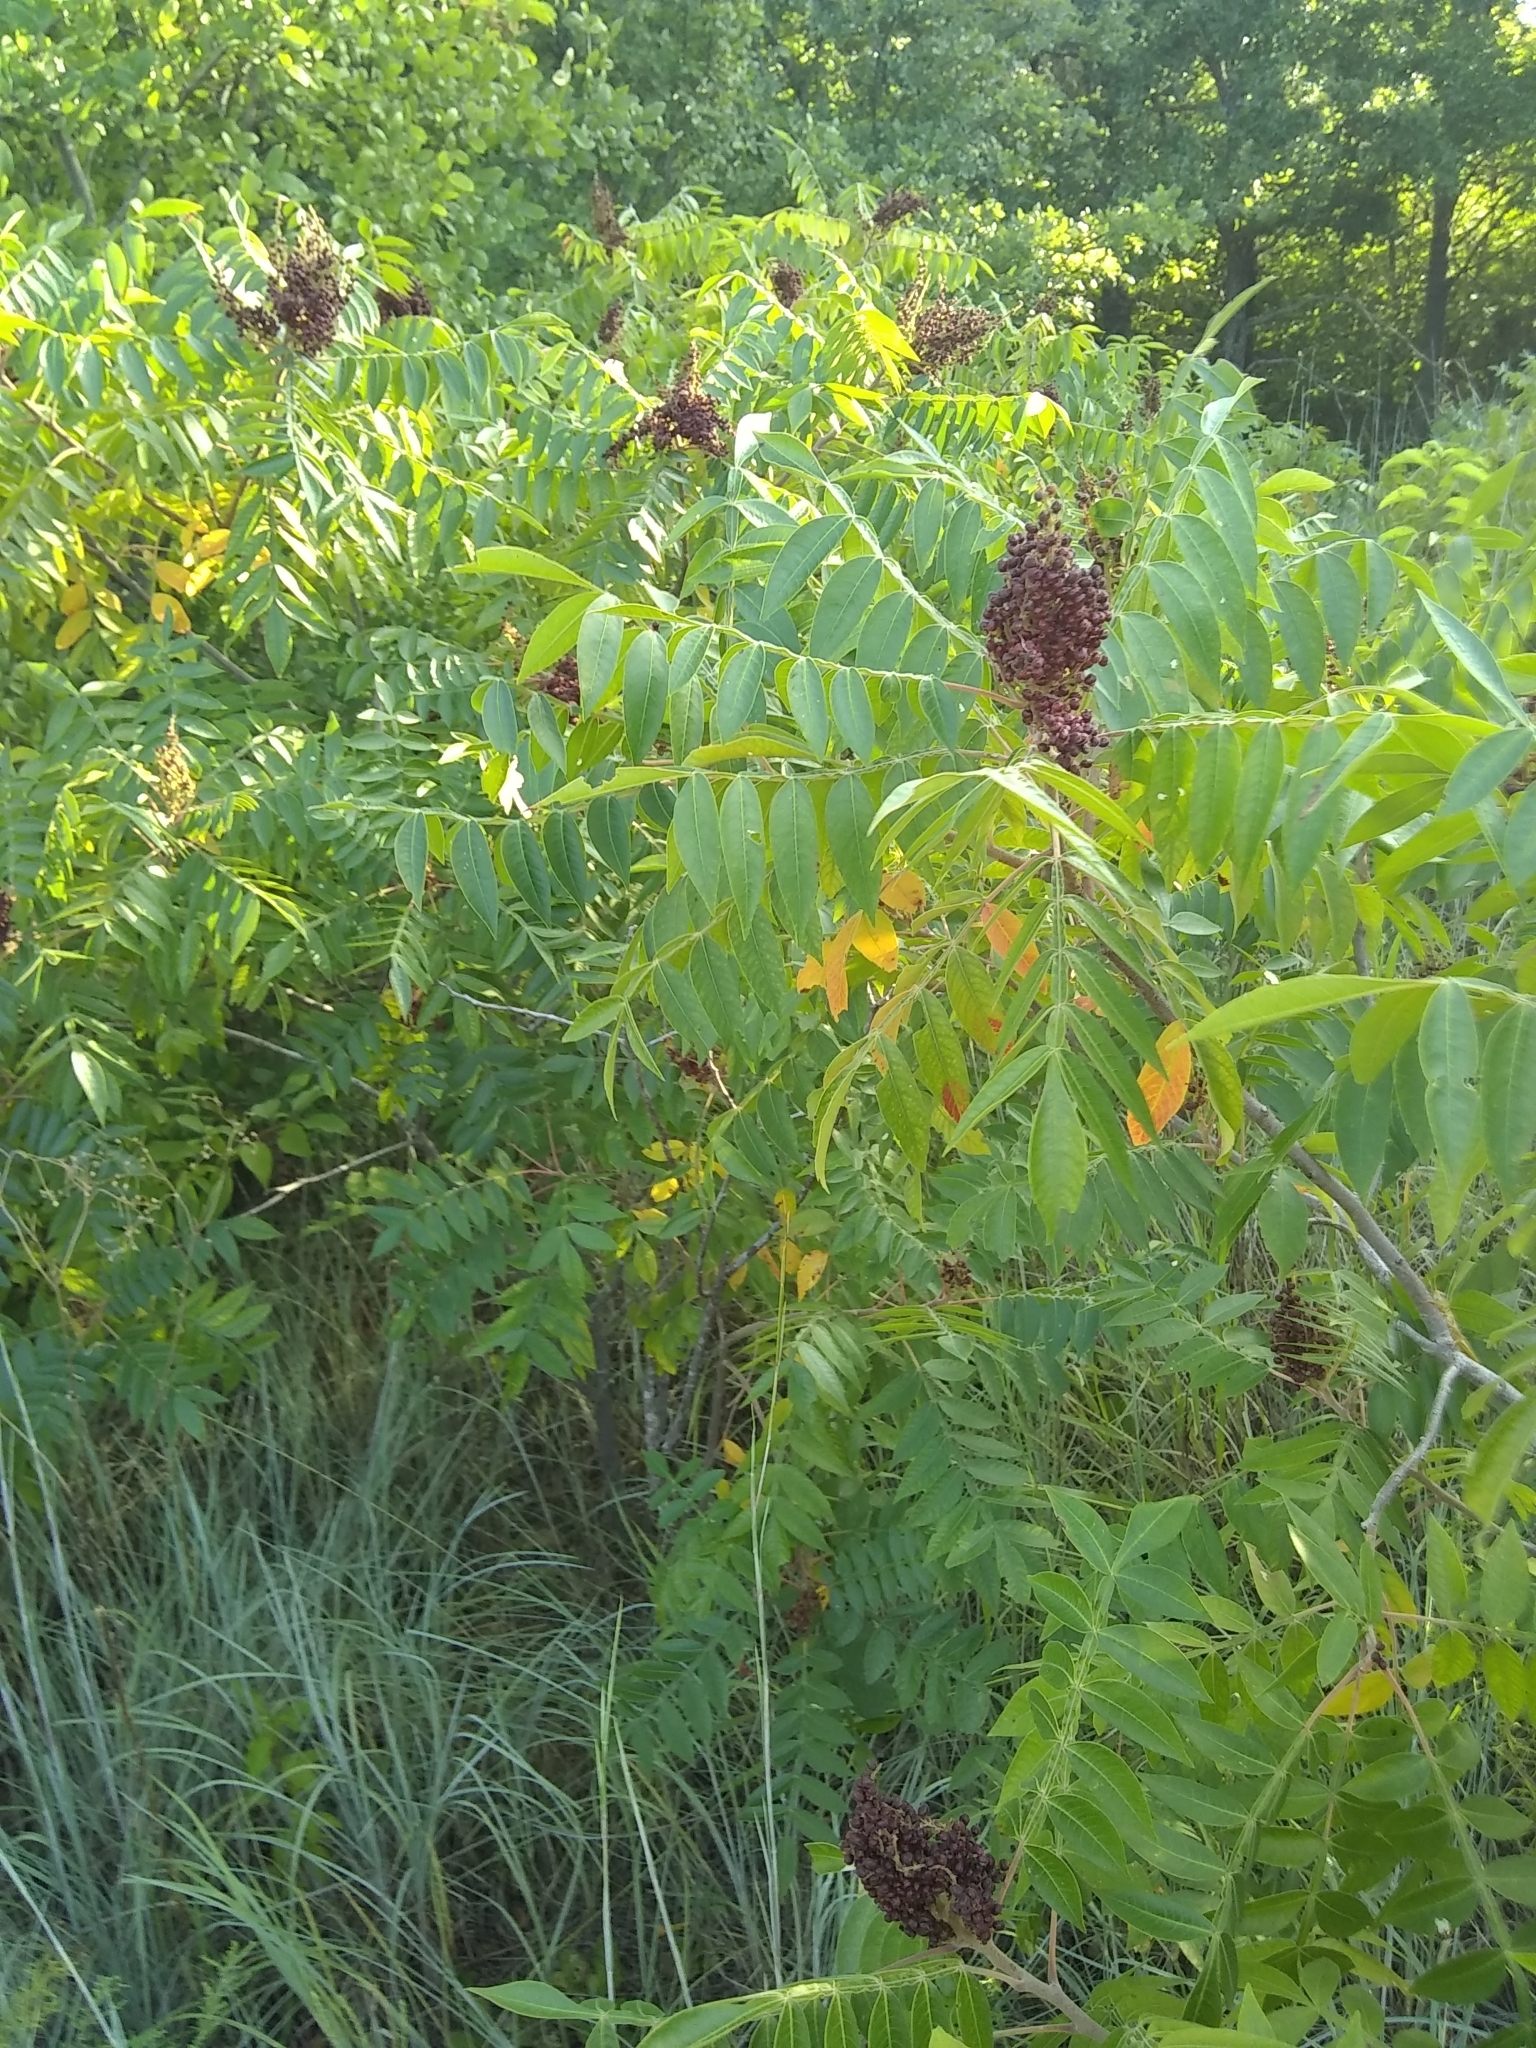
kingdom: Plantae
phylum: Tracheophyta
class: Magnoliopsida
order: Sapindales
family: Anacardiaceae
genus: Rhus
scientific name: Rhus copallina
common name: Shining sumac
